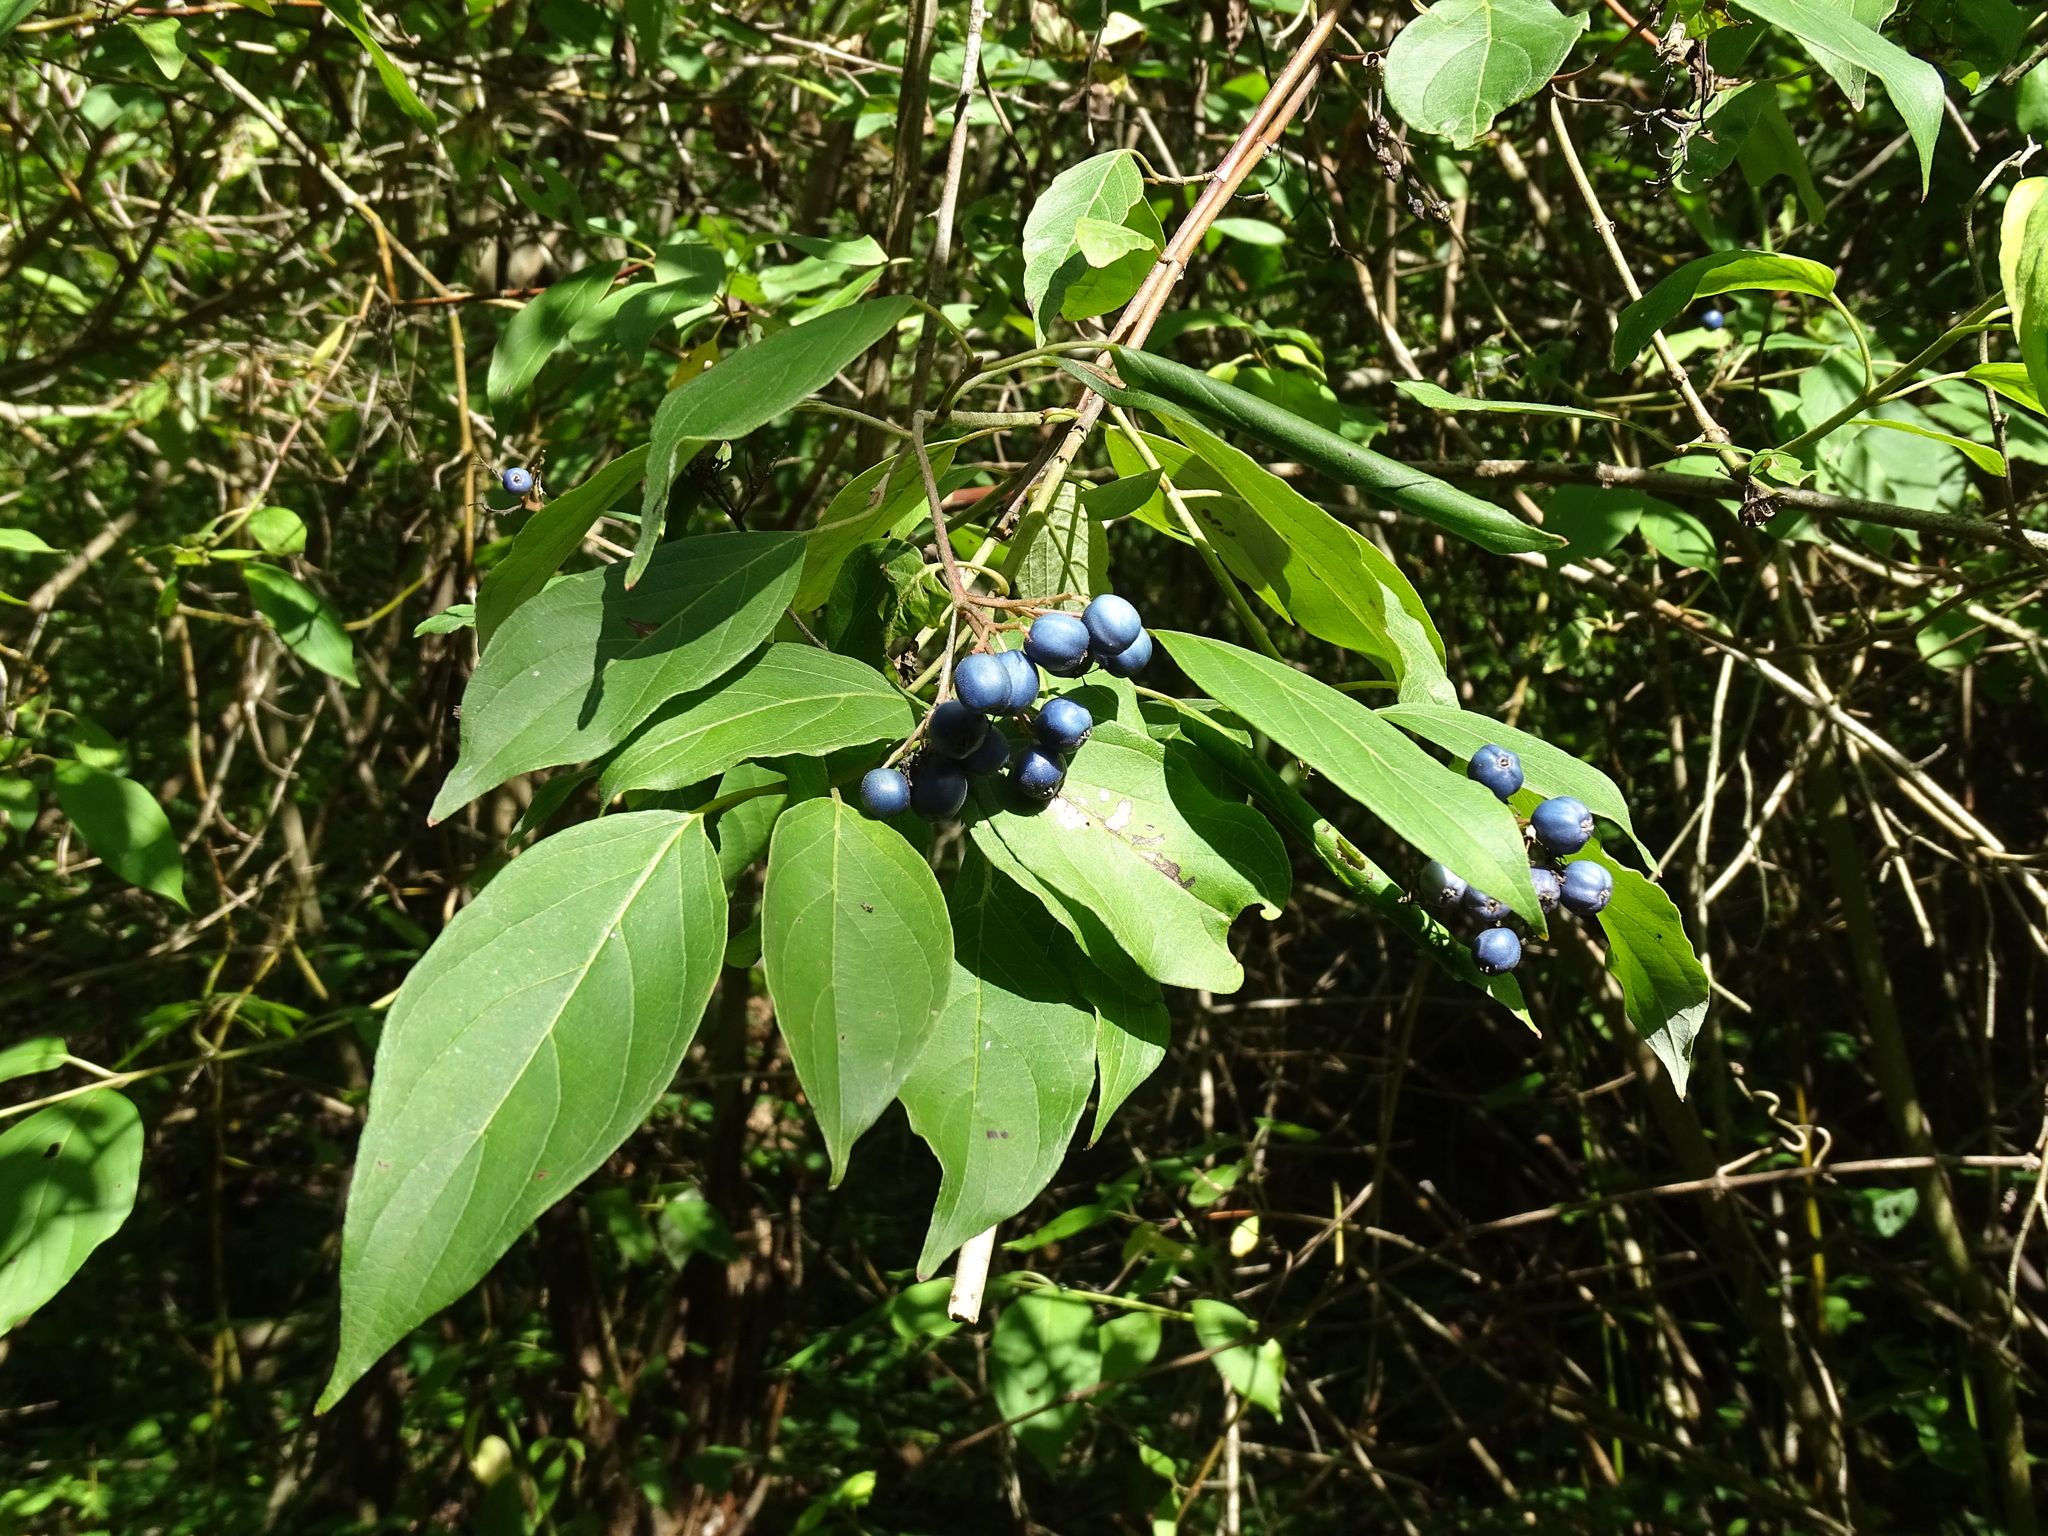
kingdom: Plantae
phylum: Tracheophyta
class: Magnoliopsida
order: Cornales
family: Cornaceae
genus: Cornus
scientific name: Cornus amomum
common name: Silky dogwood
